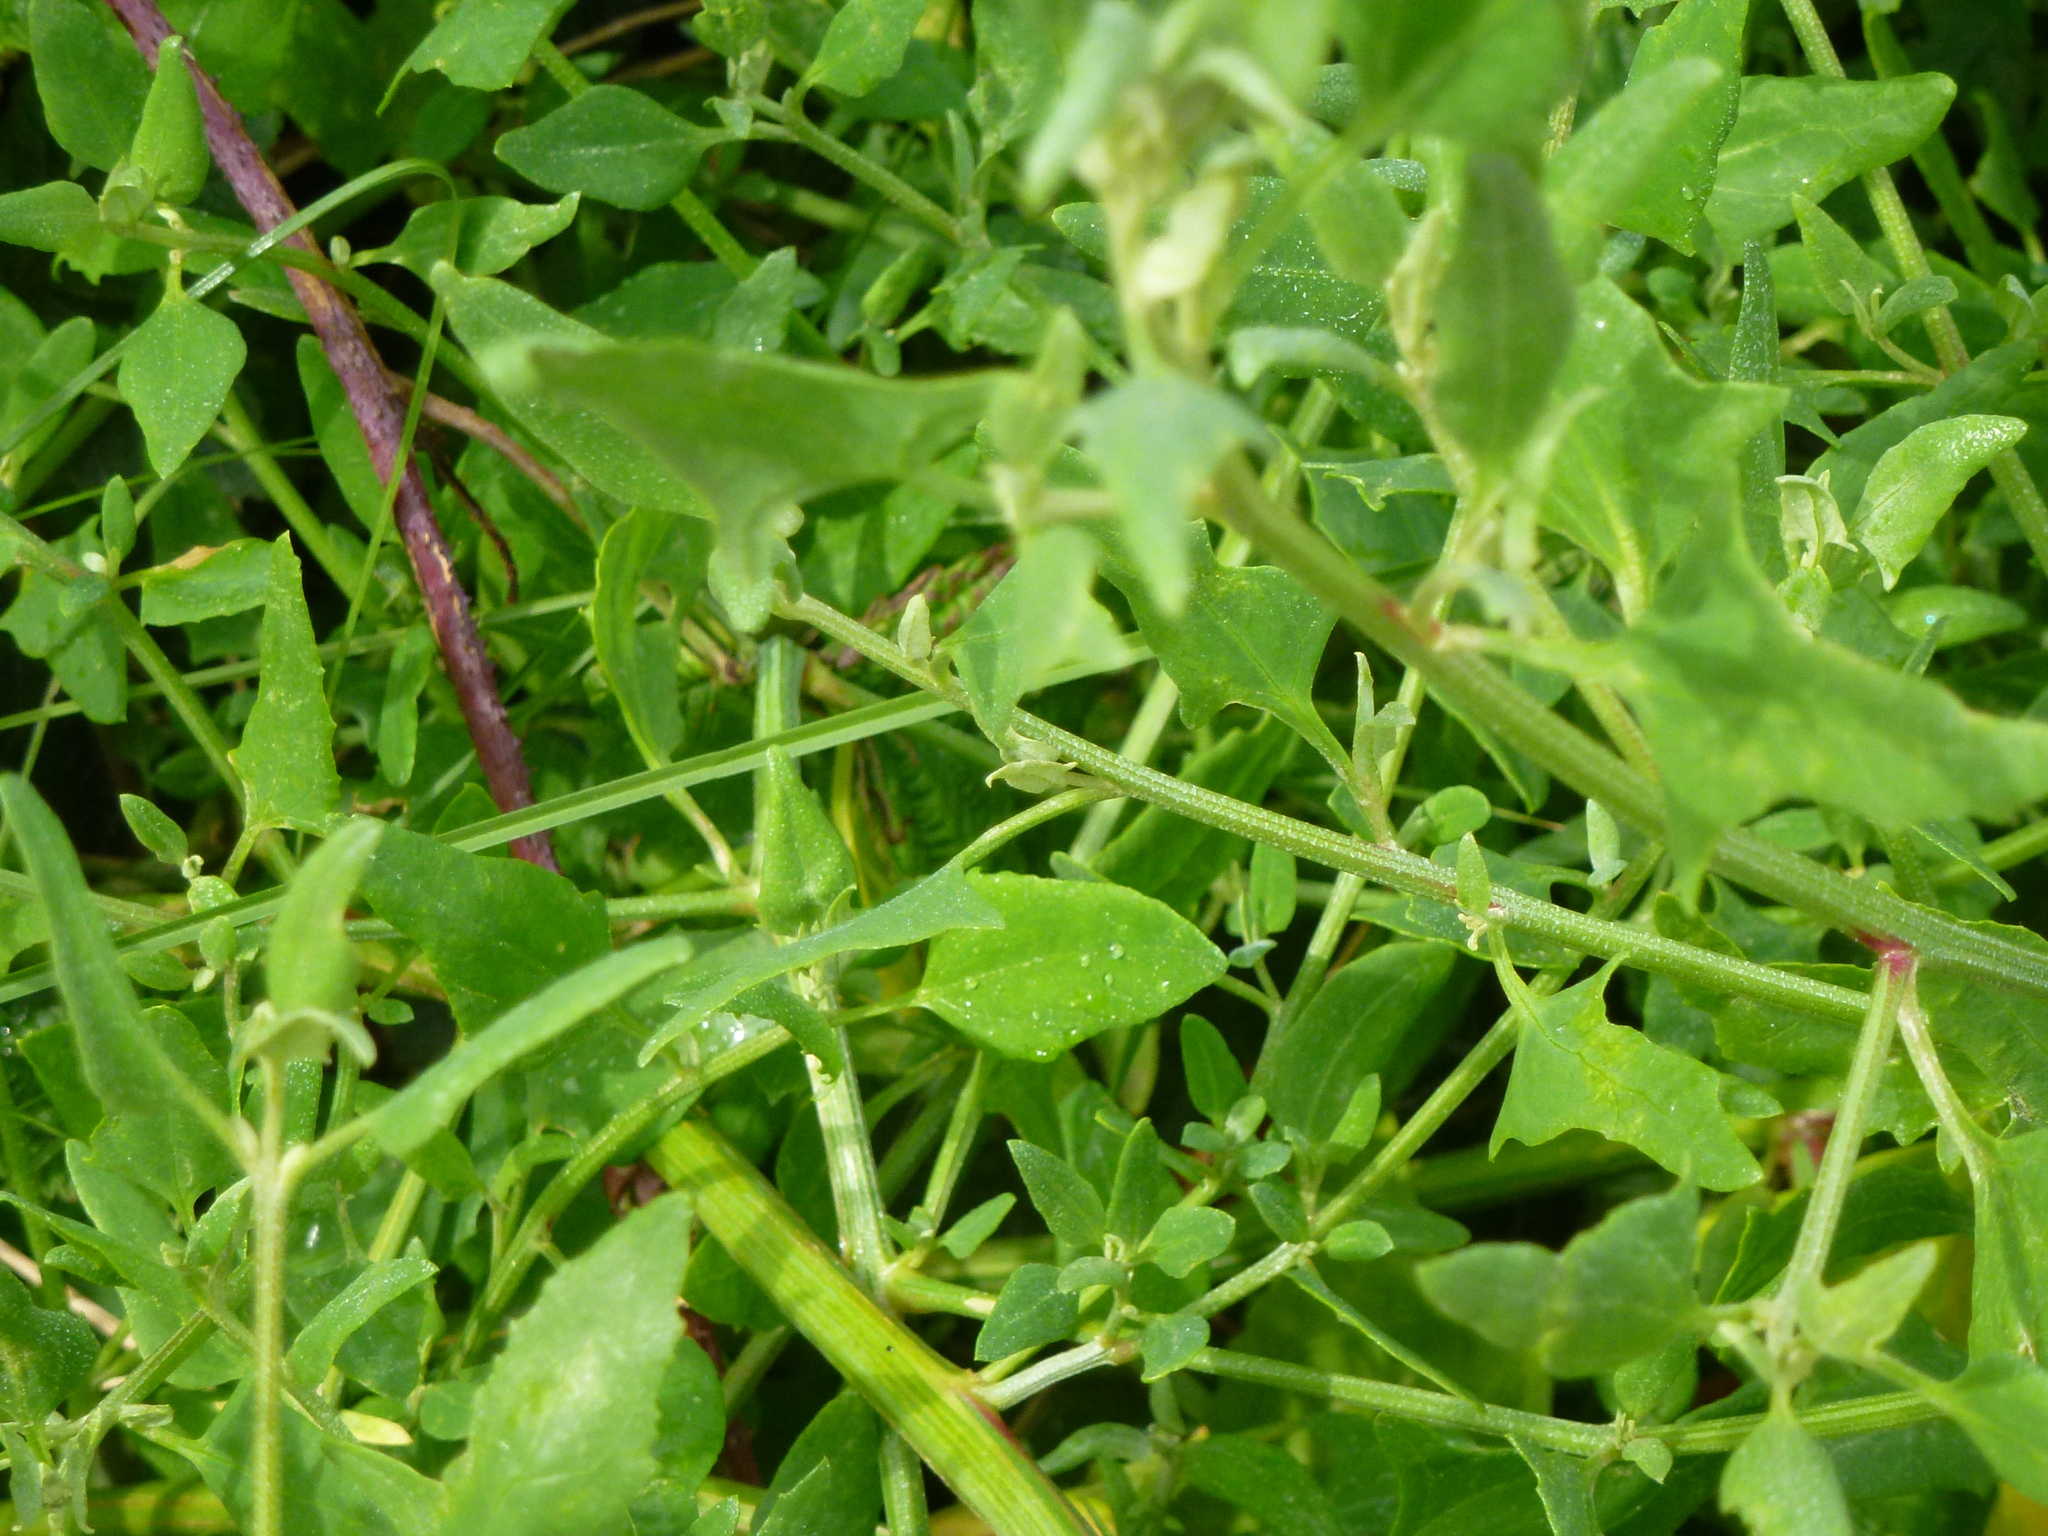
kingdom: Plantae
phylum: Tracheophyta
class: Magnoliopsida
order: Caryophyllales
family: Amaranthaceae
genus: Atriplex
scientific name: Atriplex prostrata
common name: Spear-leaved orache
